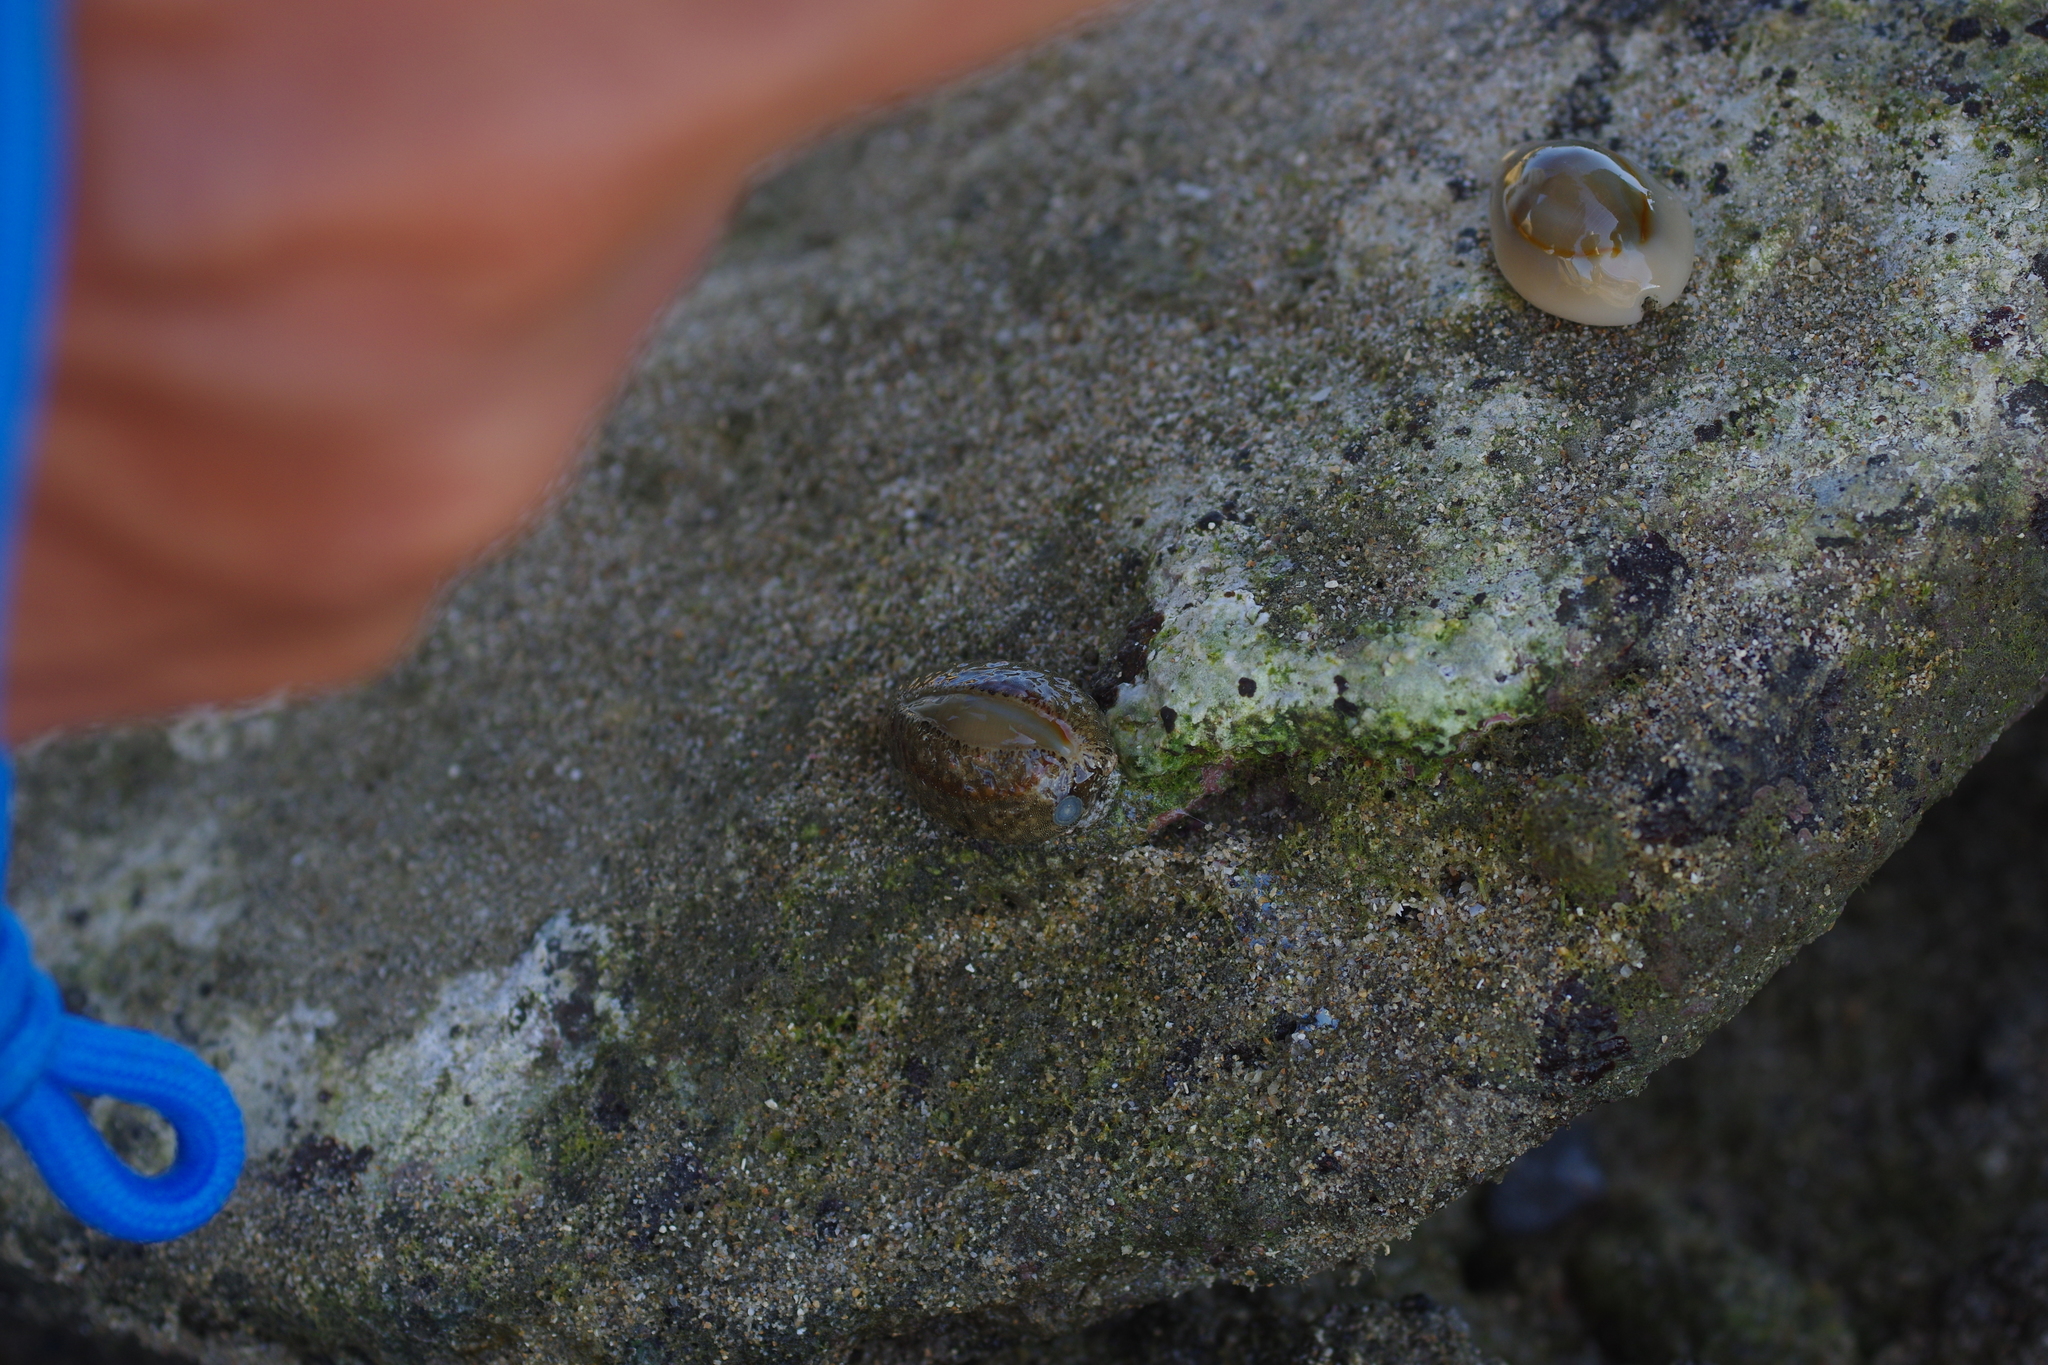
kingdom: Animalia
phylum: Mollusca
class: Gastropoda
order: Littorinimorpha
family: Cypraeidae
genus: Monetaria
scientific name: Monetaria annulus
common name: Ring cowrie
